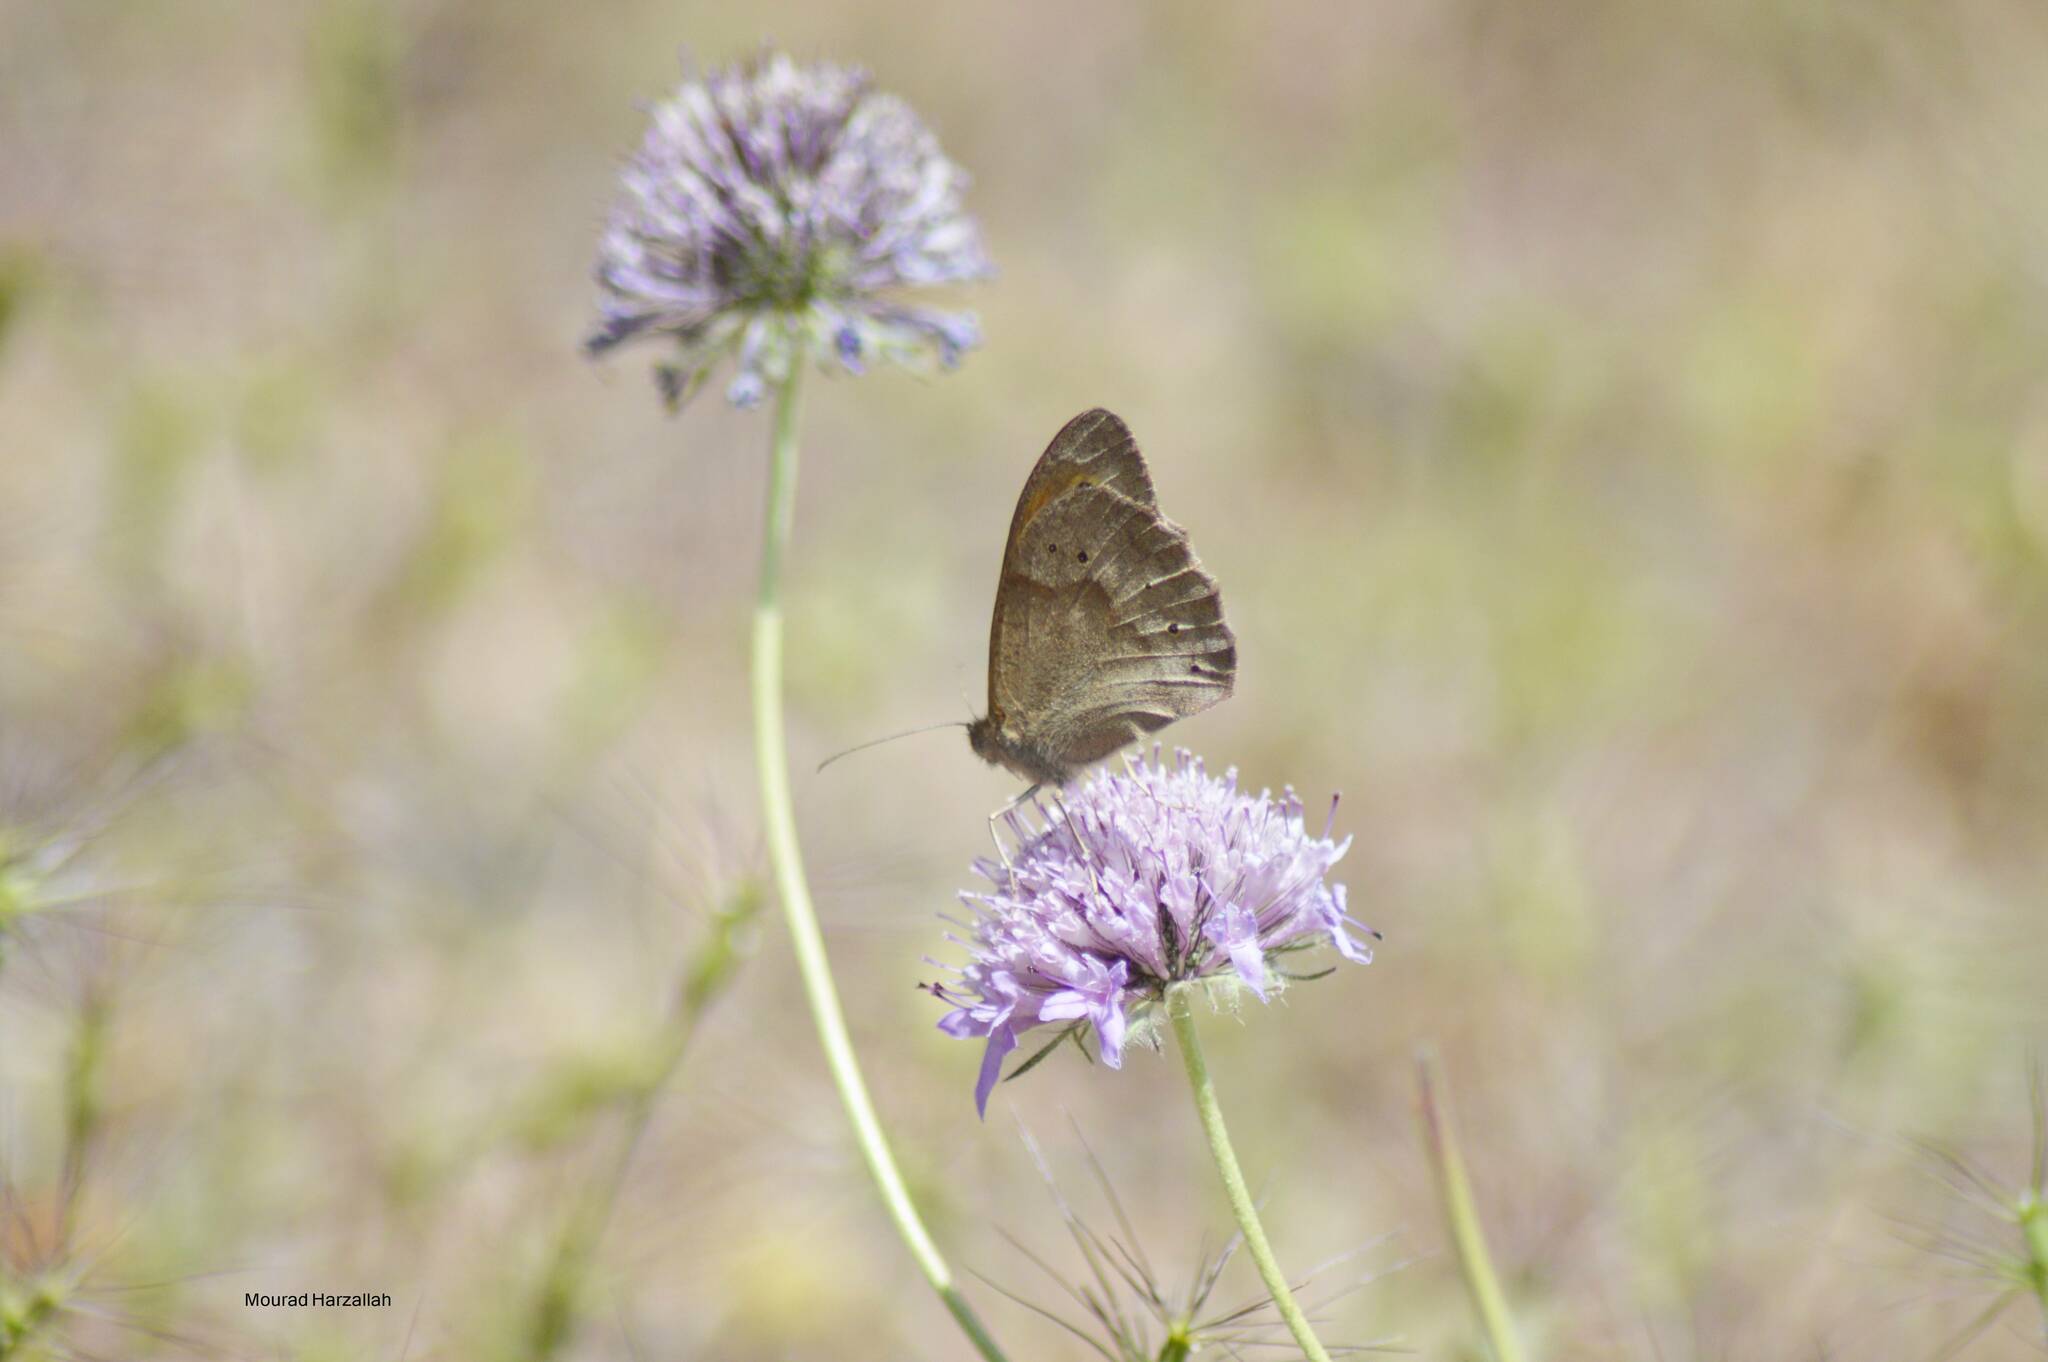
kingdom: Animalia
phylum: Arthropoda
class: Insecta
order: Lepidoptera
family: Nymphalidae
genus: Maniola
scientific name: Maniola jurtina
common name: Meadow brown
